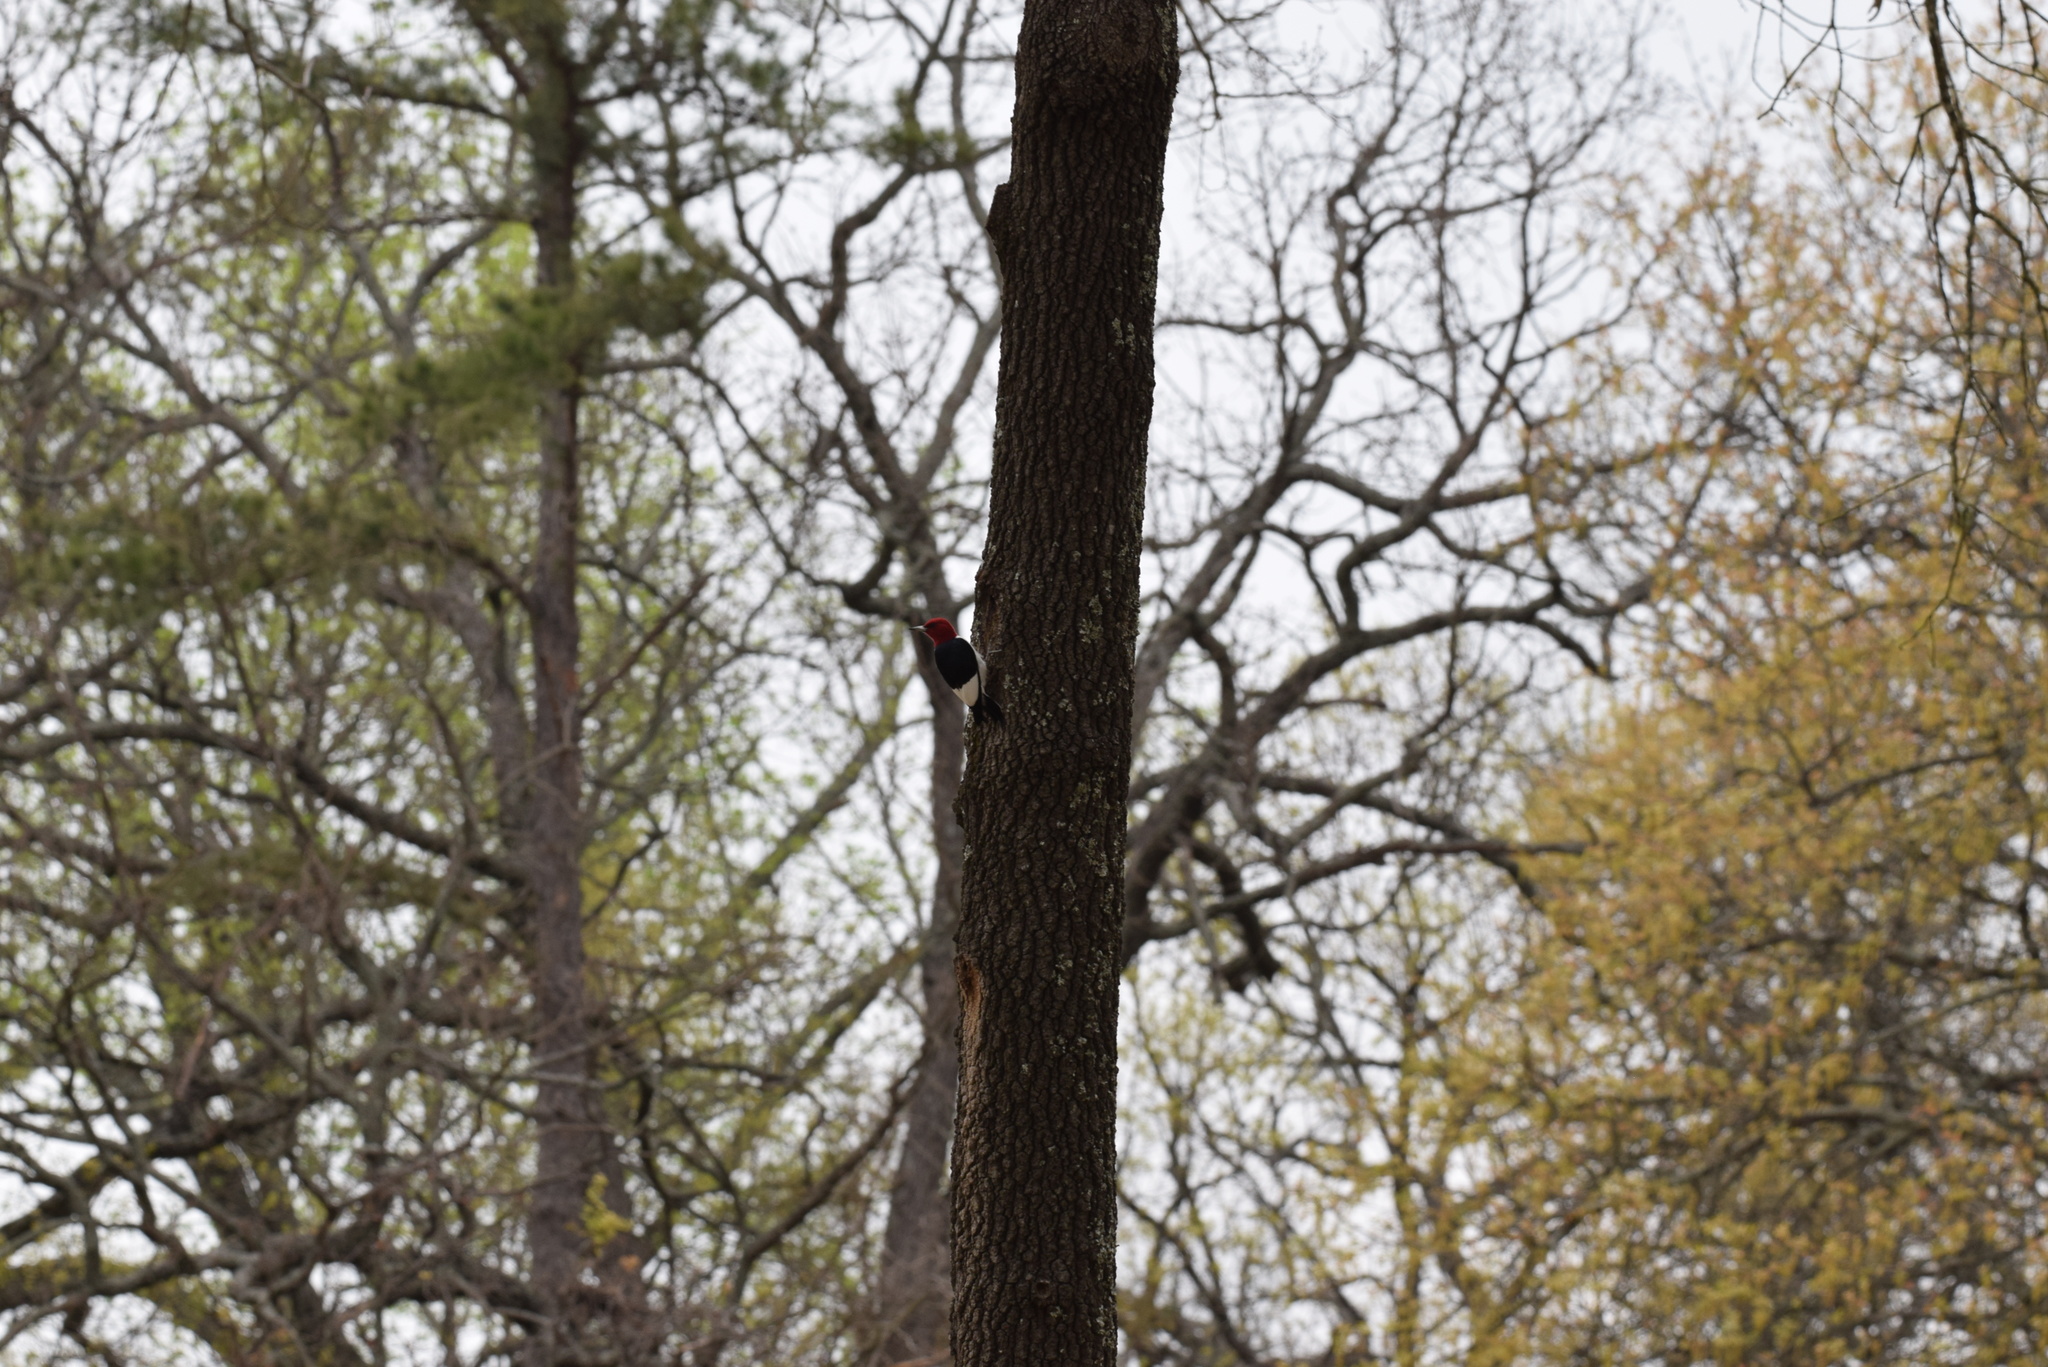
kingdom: Animalia
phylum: Chordata
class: Aves
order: Piciformes
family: Picidae
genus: Melanerpes
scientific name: Melanerpes erythrocephalus
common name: Red-headed woodpecker
